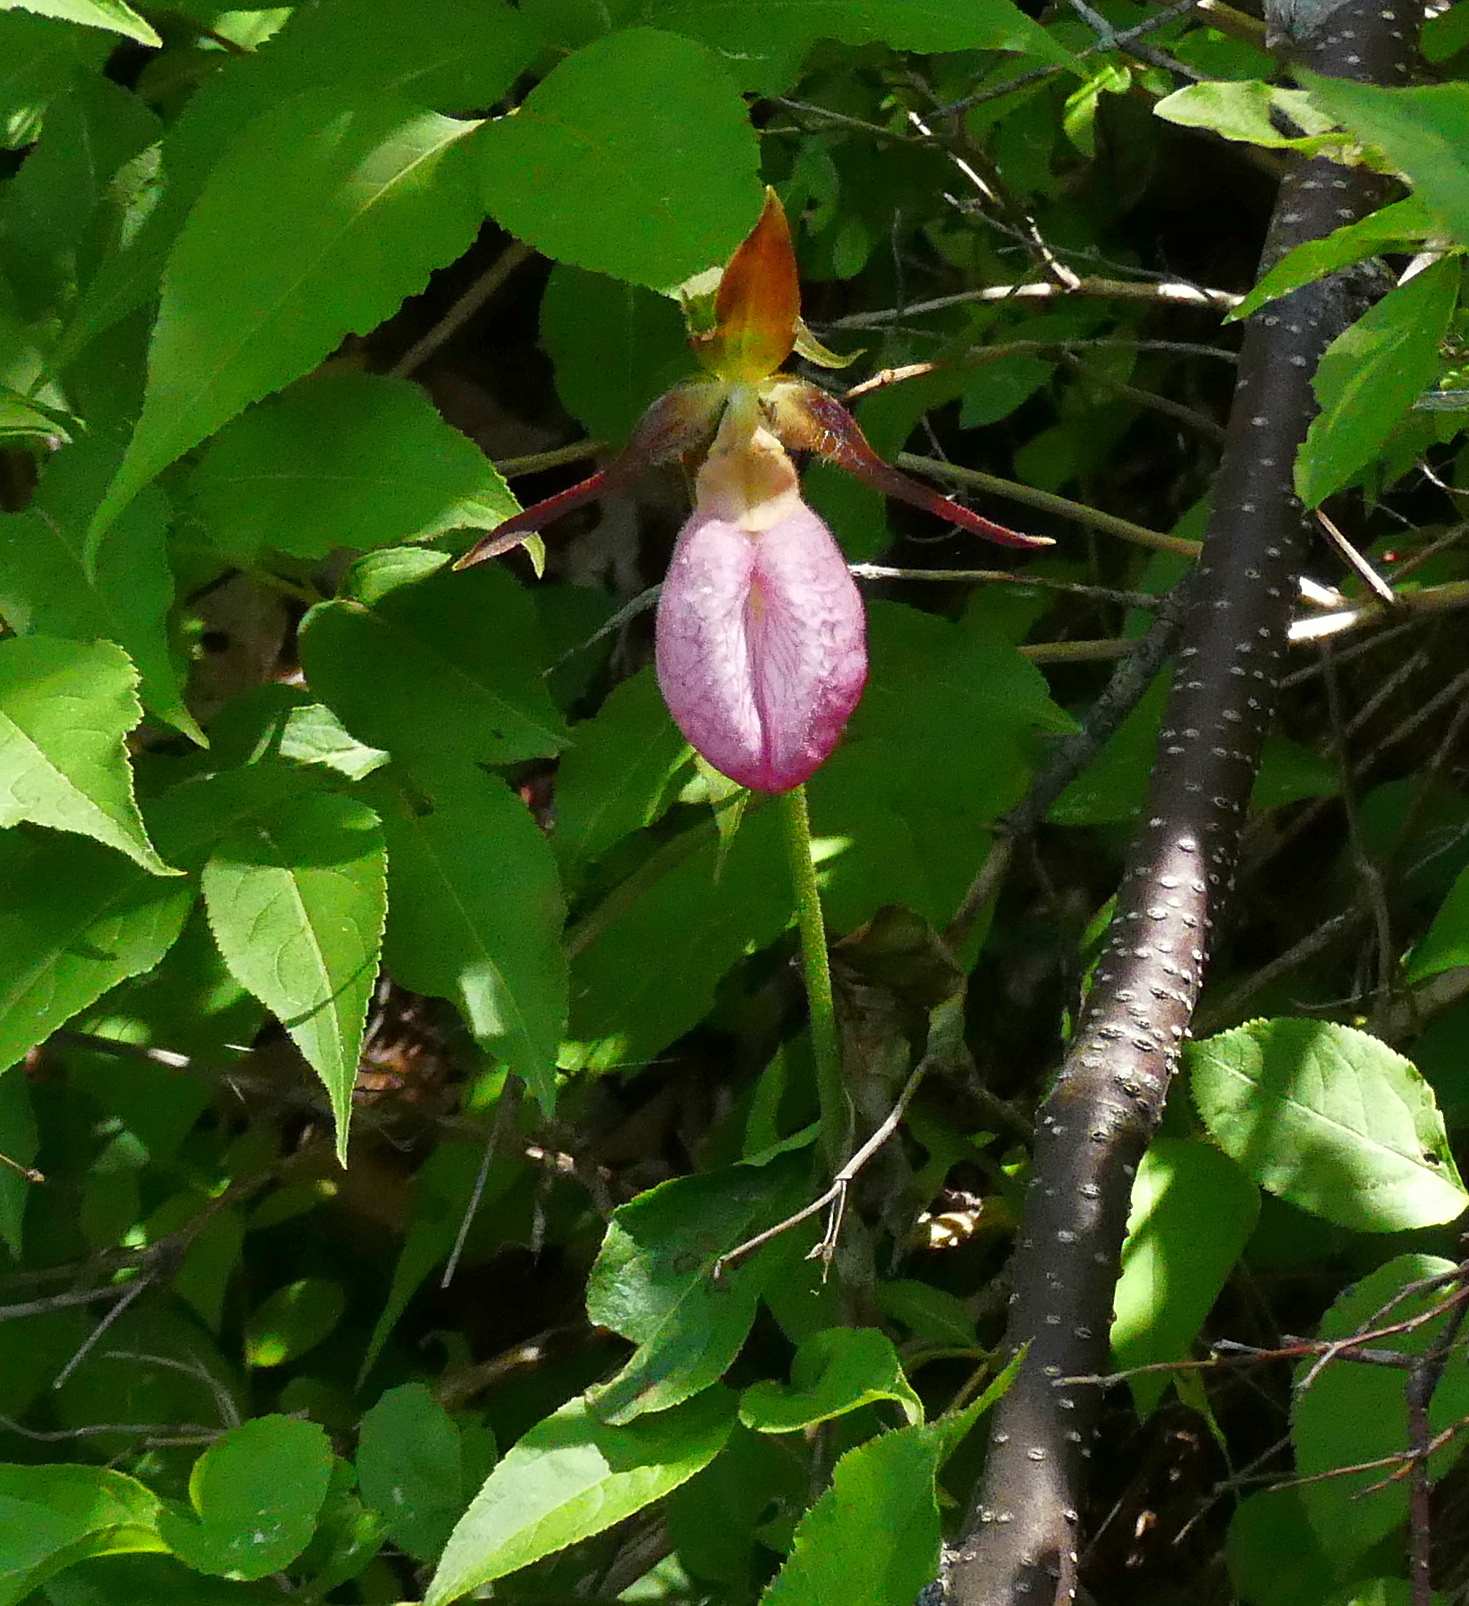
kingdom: Plantae
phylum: Tracheophyta
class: Liliopsida
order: Asparagales
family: Orchidaceae
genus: Cypripedium
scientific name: Cypripedium acaule
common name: Pink lady's-slipper
